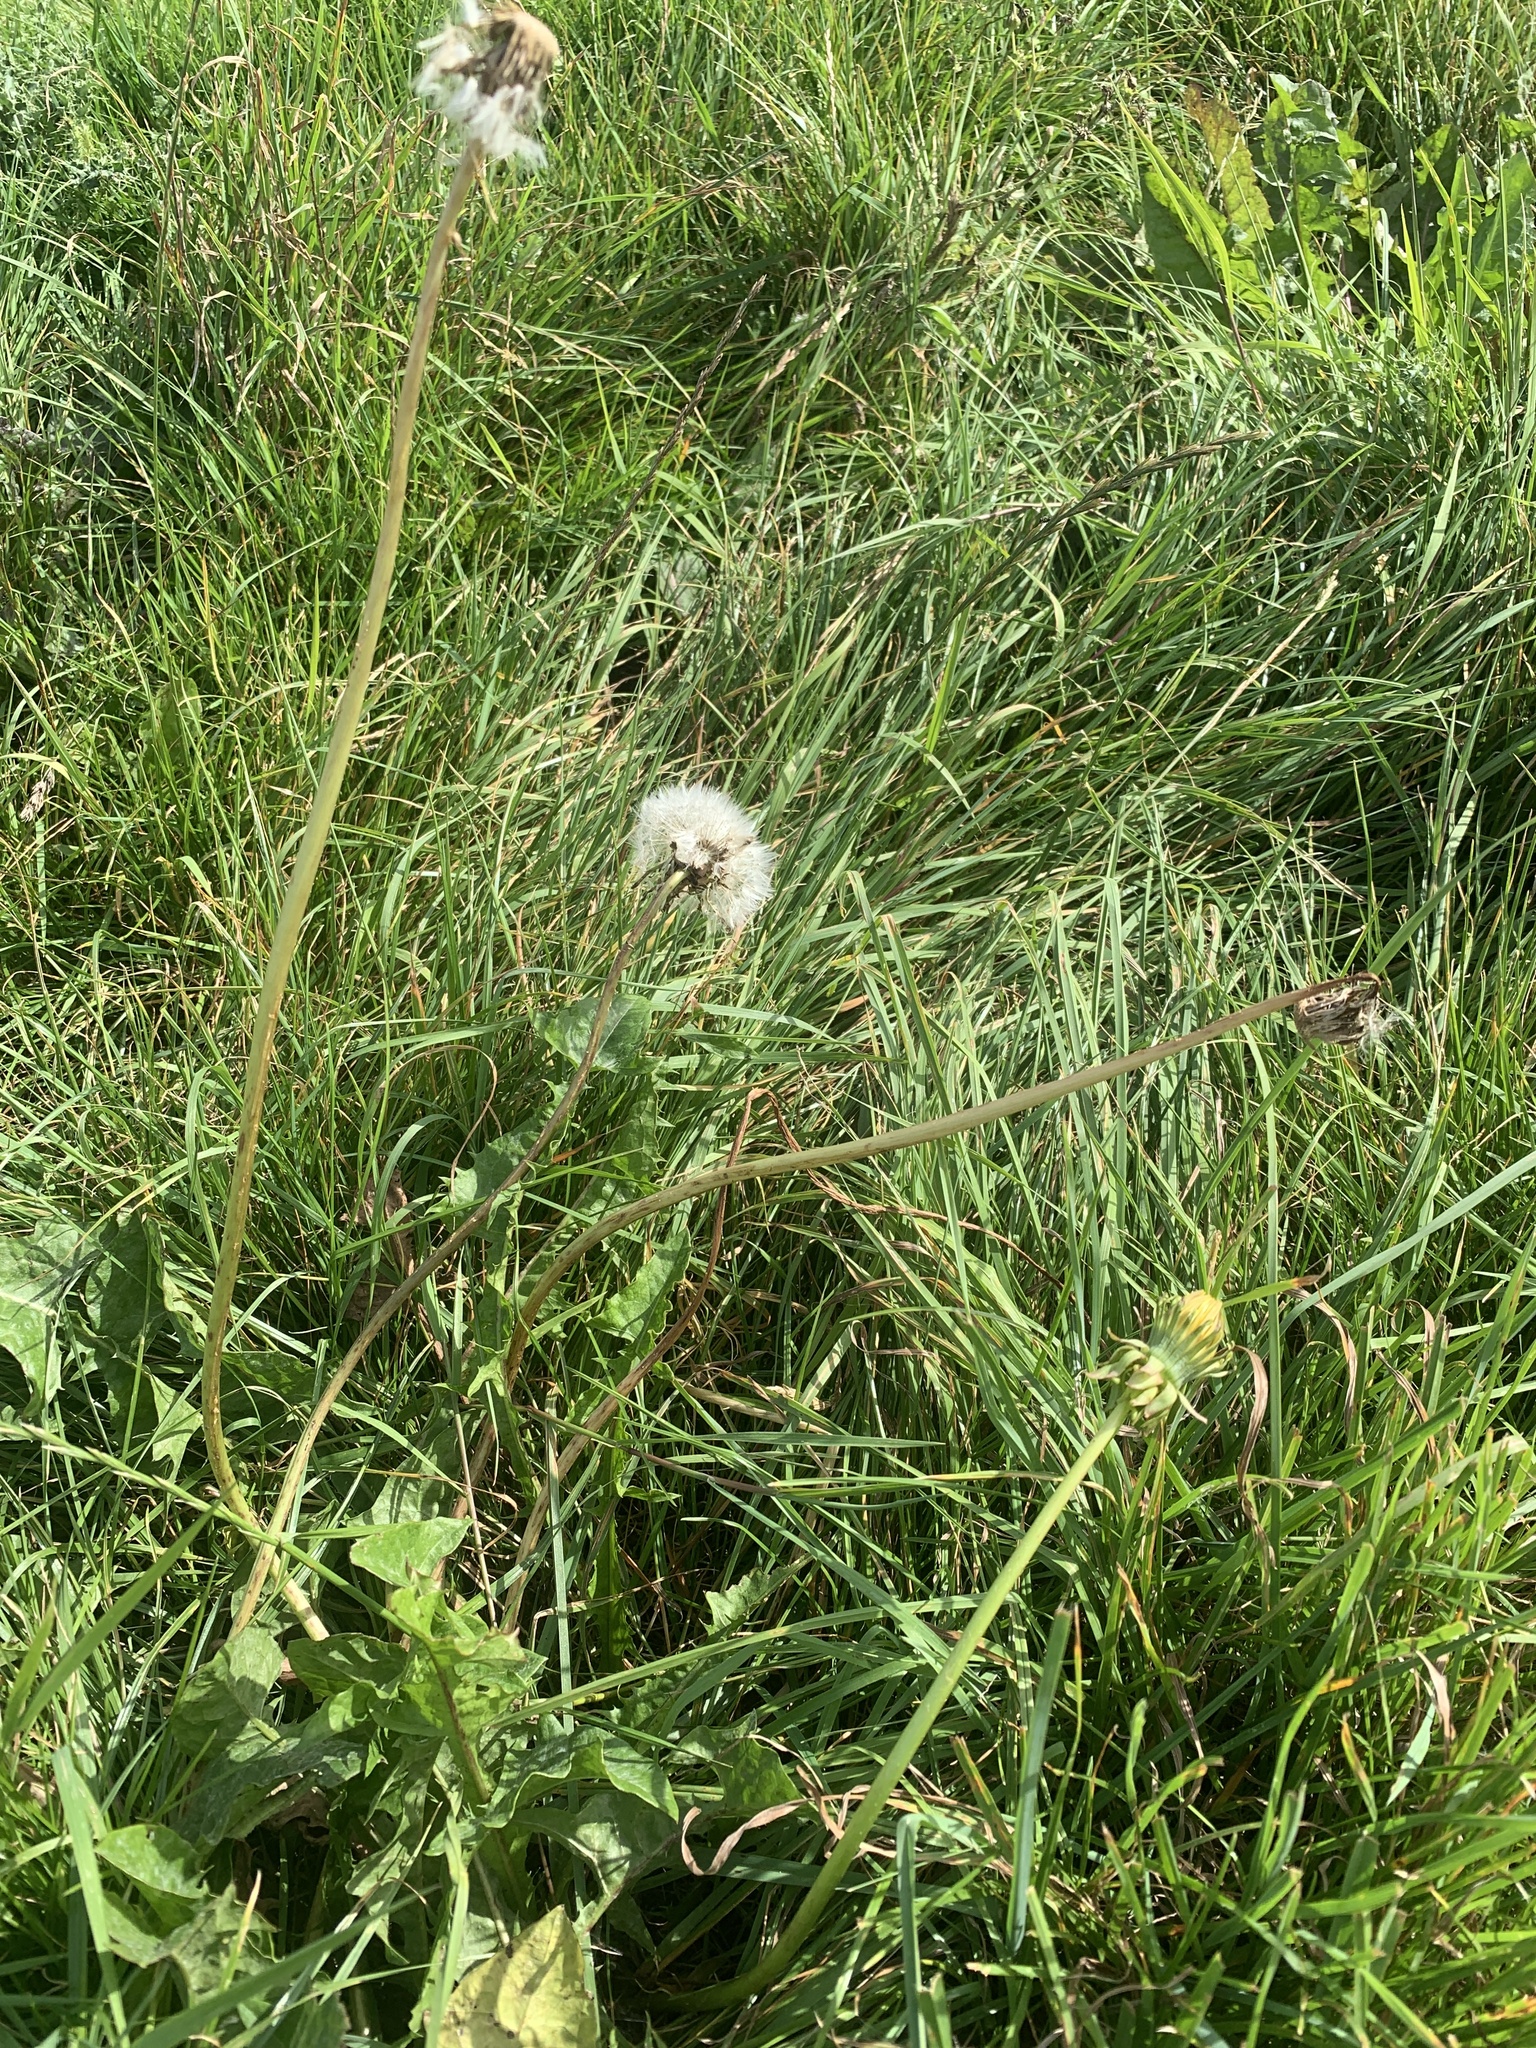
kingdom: Plantae
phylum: Tracheophyta
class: Magnoliopsida
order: Asterales
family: Asteraceae
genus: Taraxacum
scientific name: Taraxacum officinale
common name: Common dandelion
